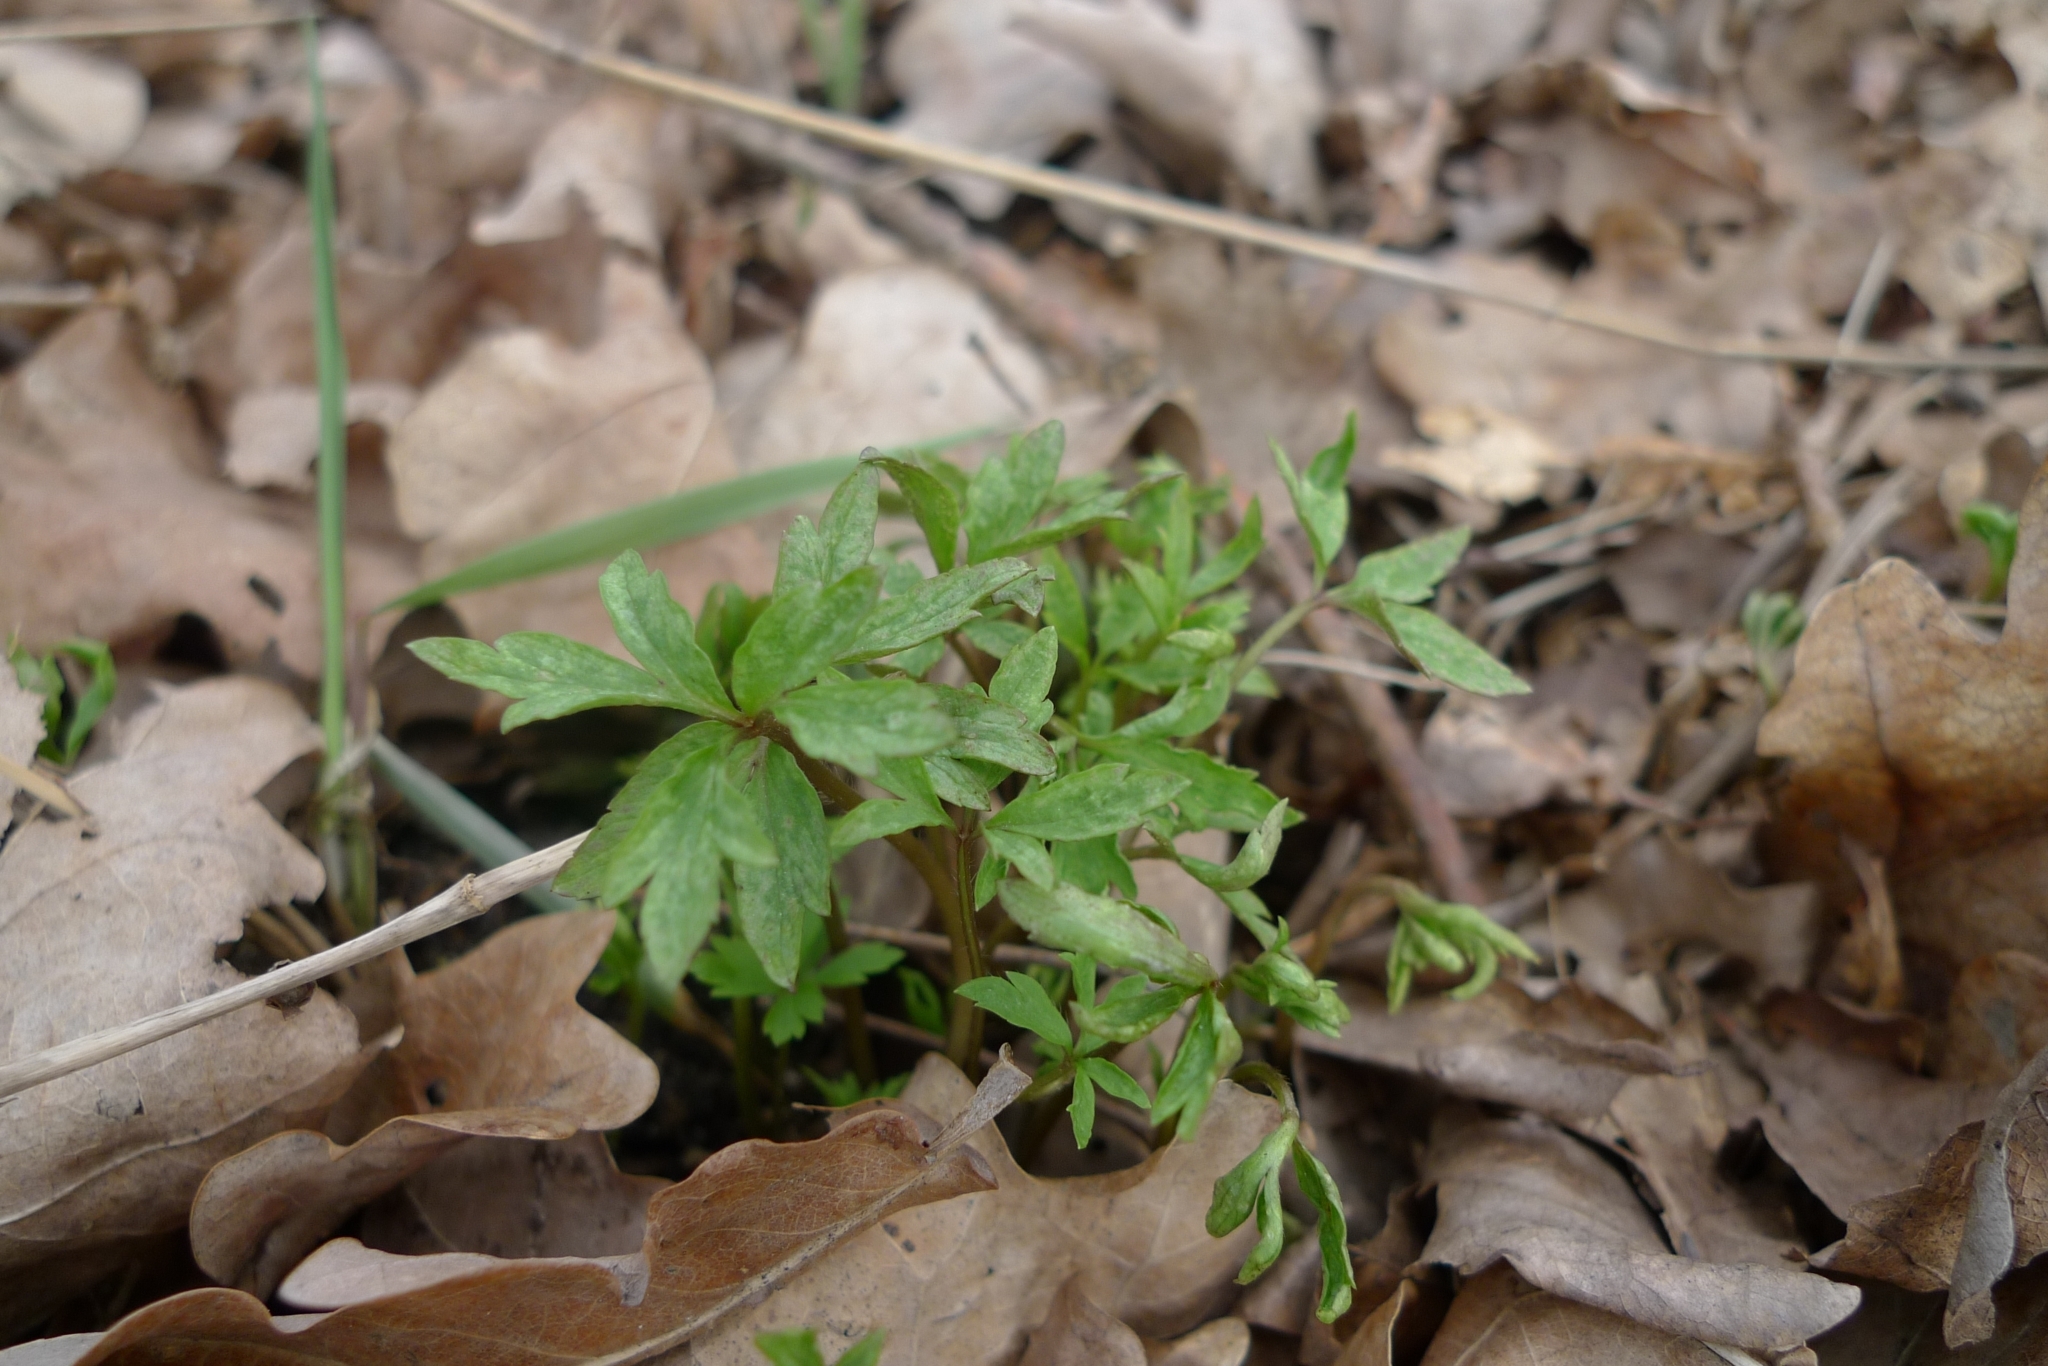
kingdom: Plantae
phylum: Tracheophyta
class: Magnoliopsida
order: Ranunculales
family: Ranunculaceae
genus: Anemone
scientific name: Anemone nemorosa
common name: Wood anemone
